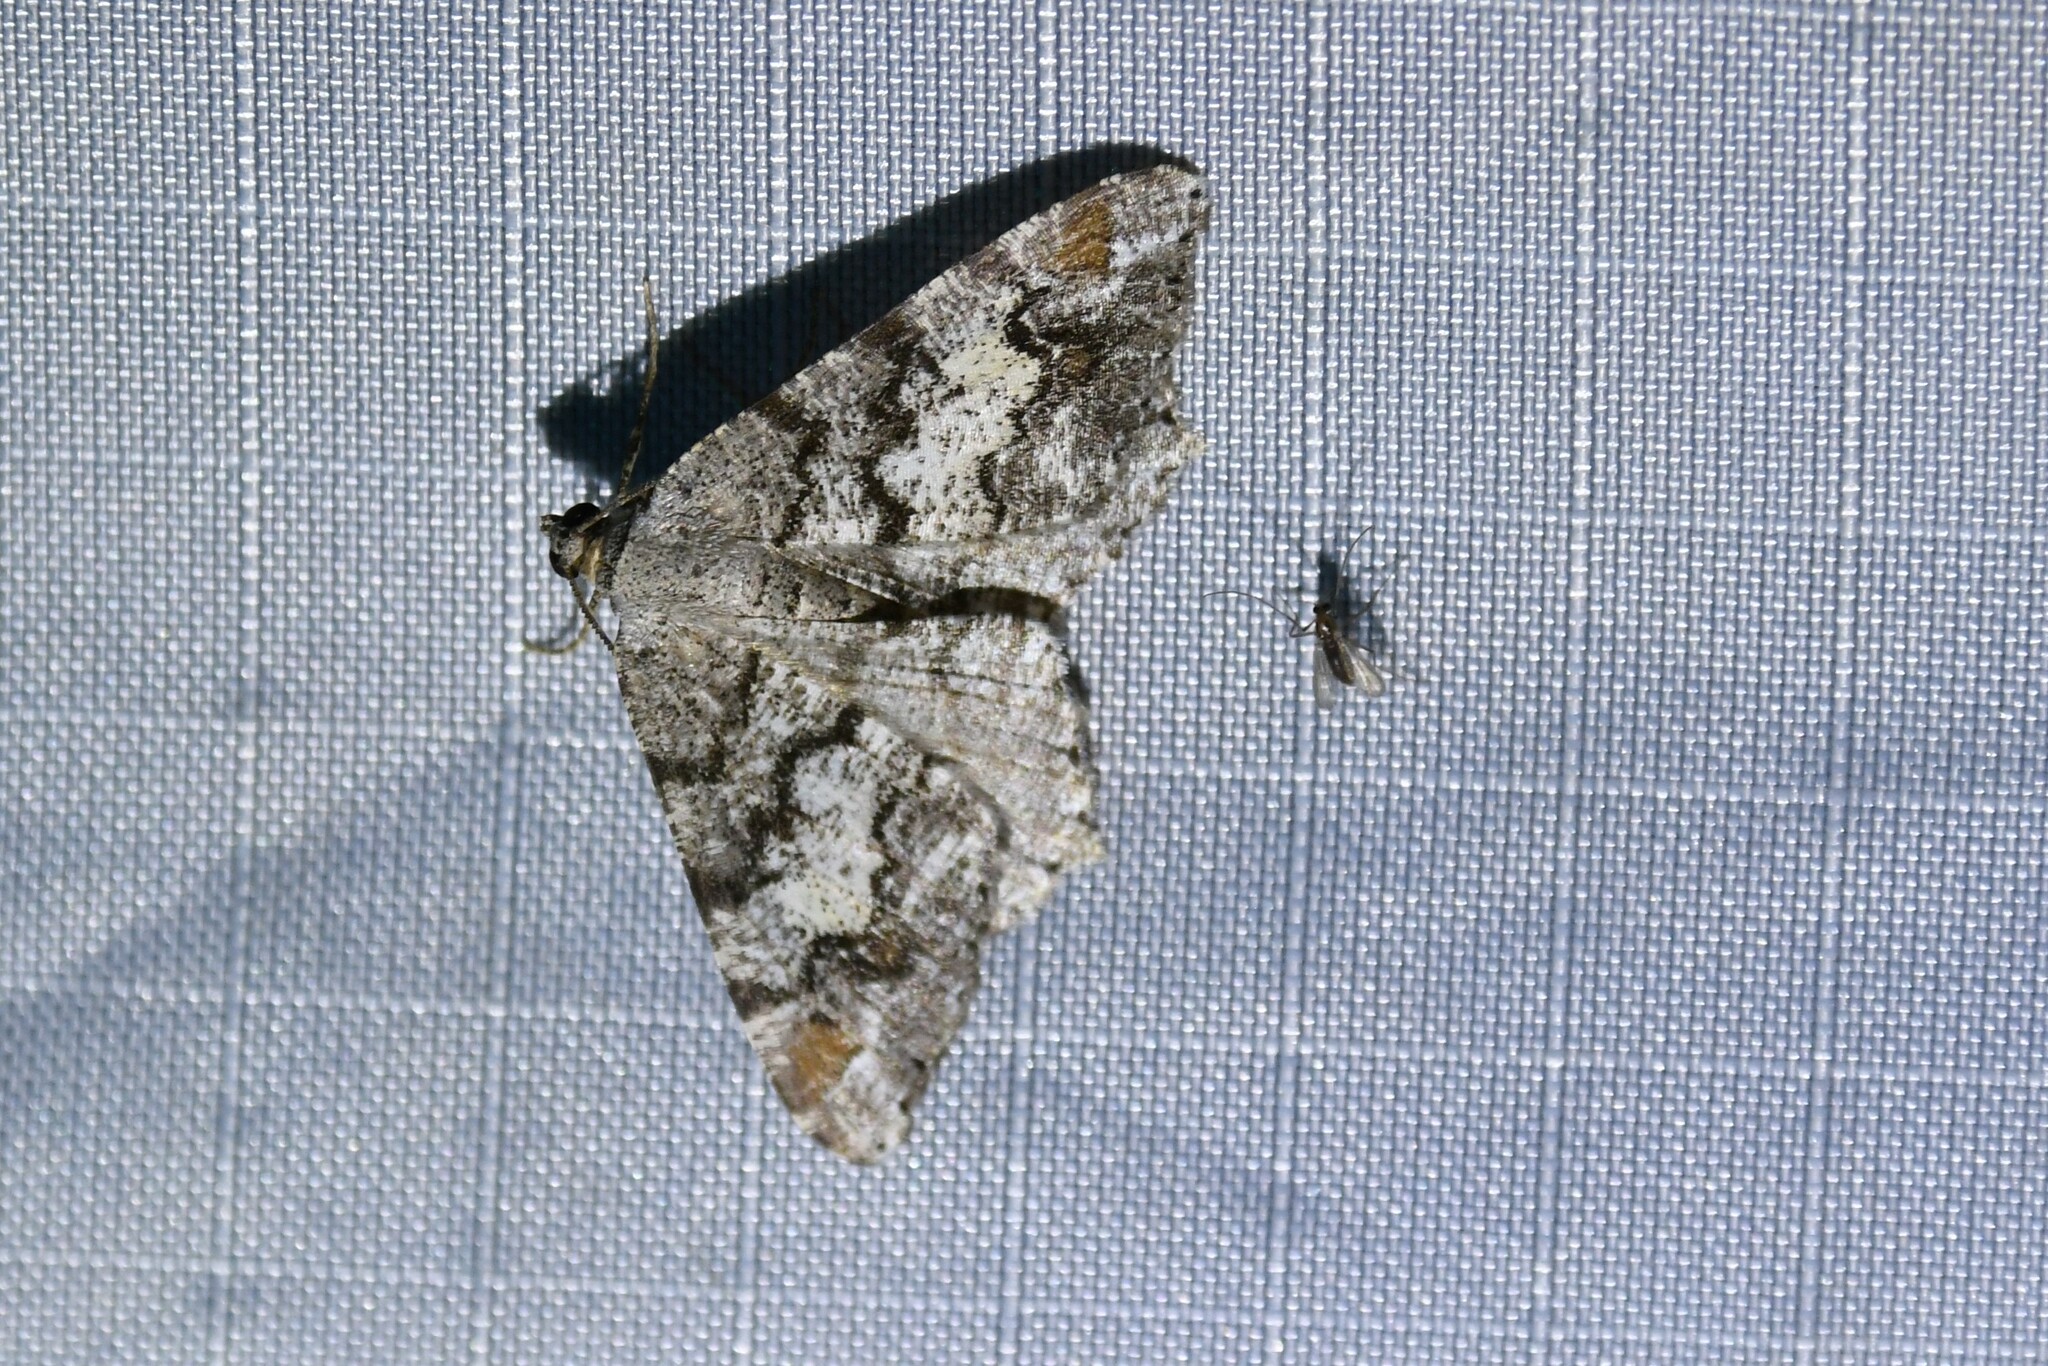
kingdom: Animalia
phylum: Arthropoda
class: Insecta
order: Lepidoptera
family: Geometridae
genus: Macaria
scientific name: Macaria granitata
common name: Granite moth
